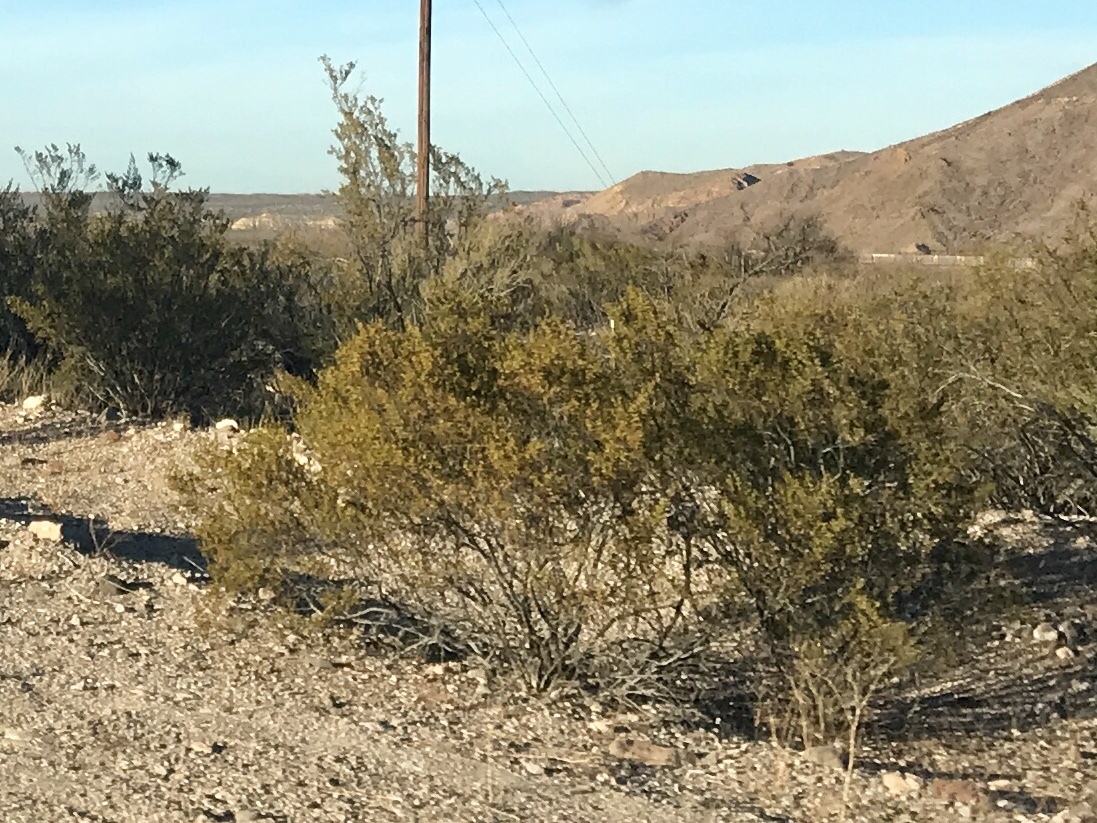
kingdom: Plantae
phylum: Tracheophyta
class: Magnoliopsida
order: Zygophyllales
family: Zygophyllaceae
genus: Larrea
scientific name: Larrea tridentata
